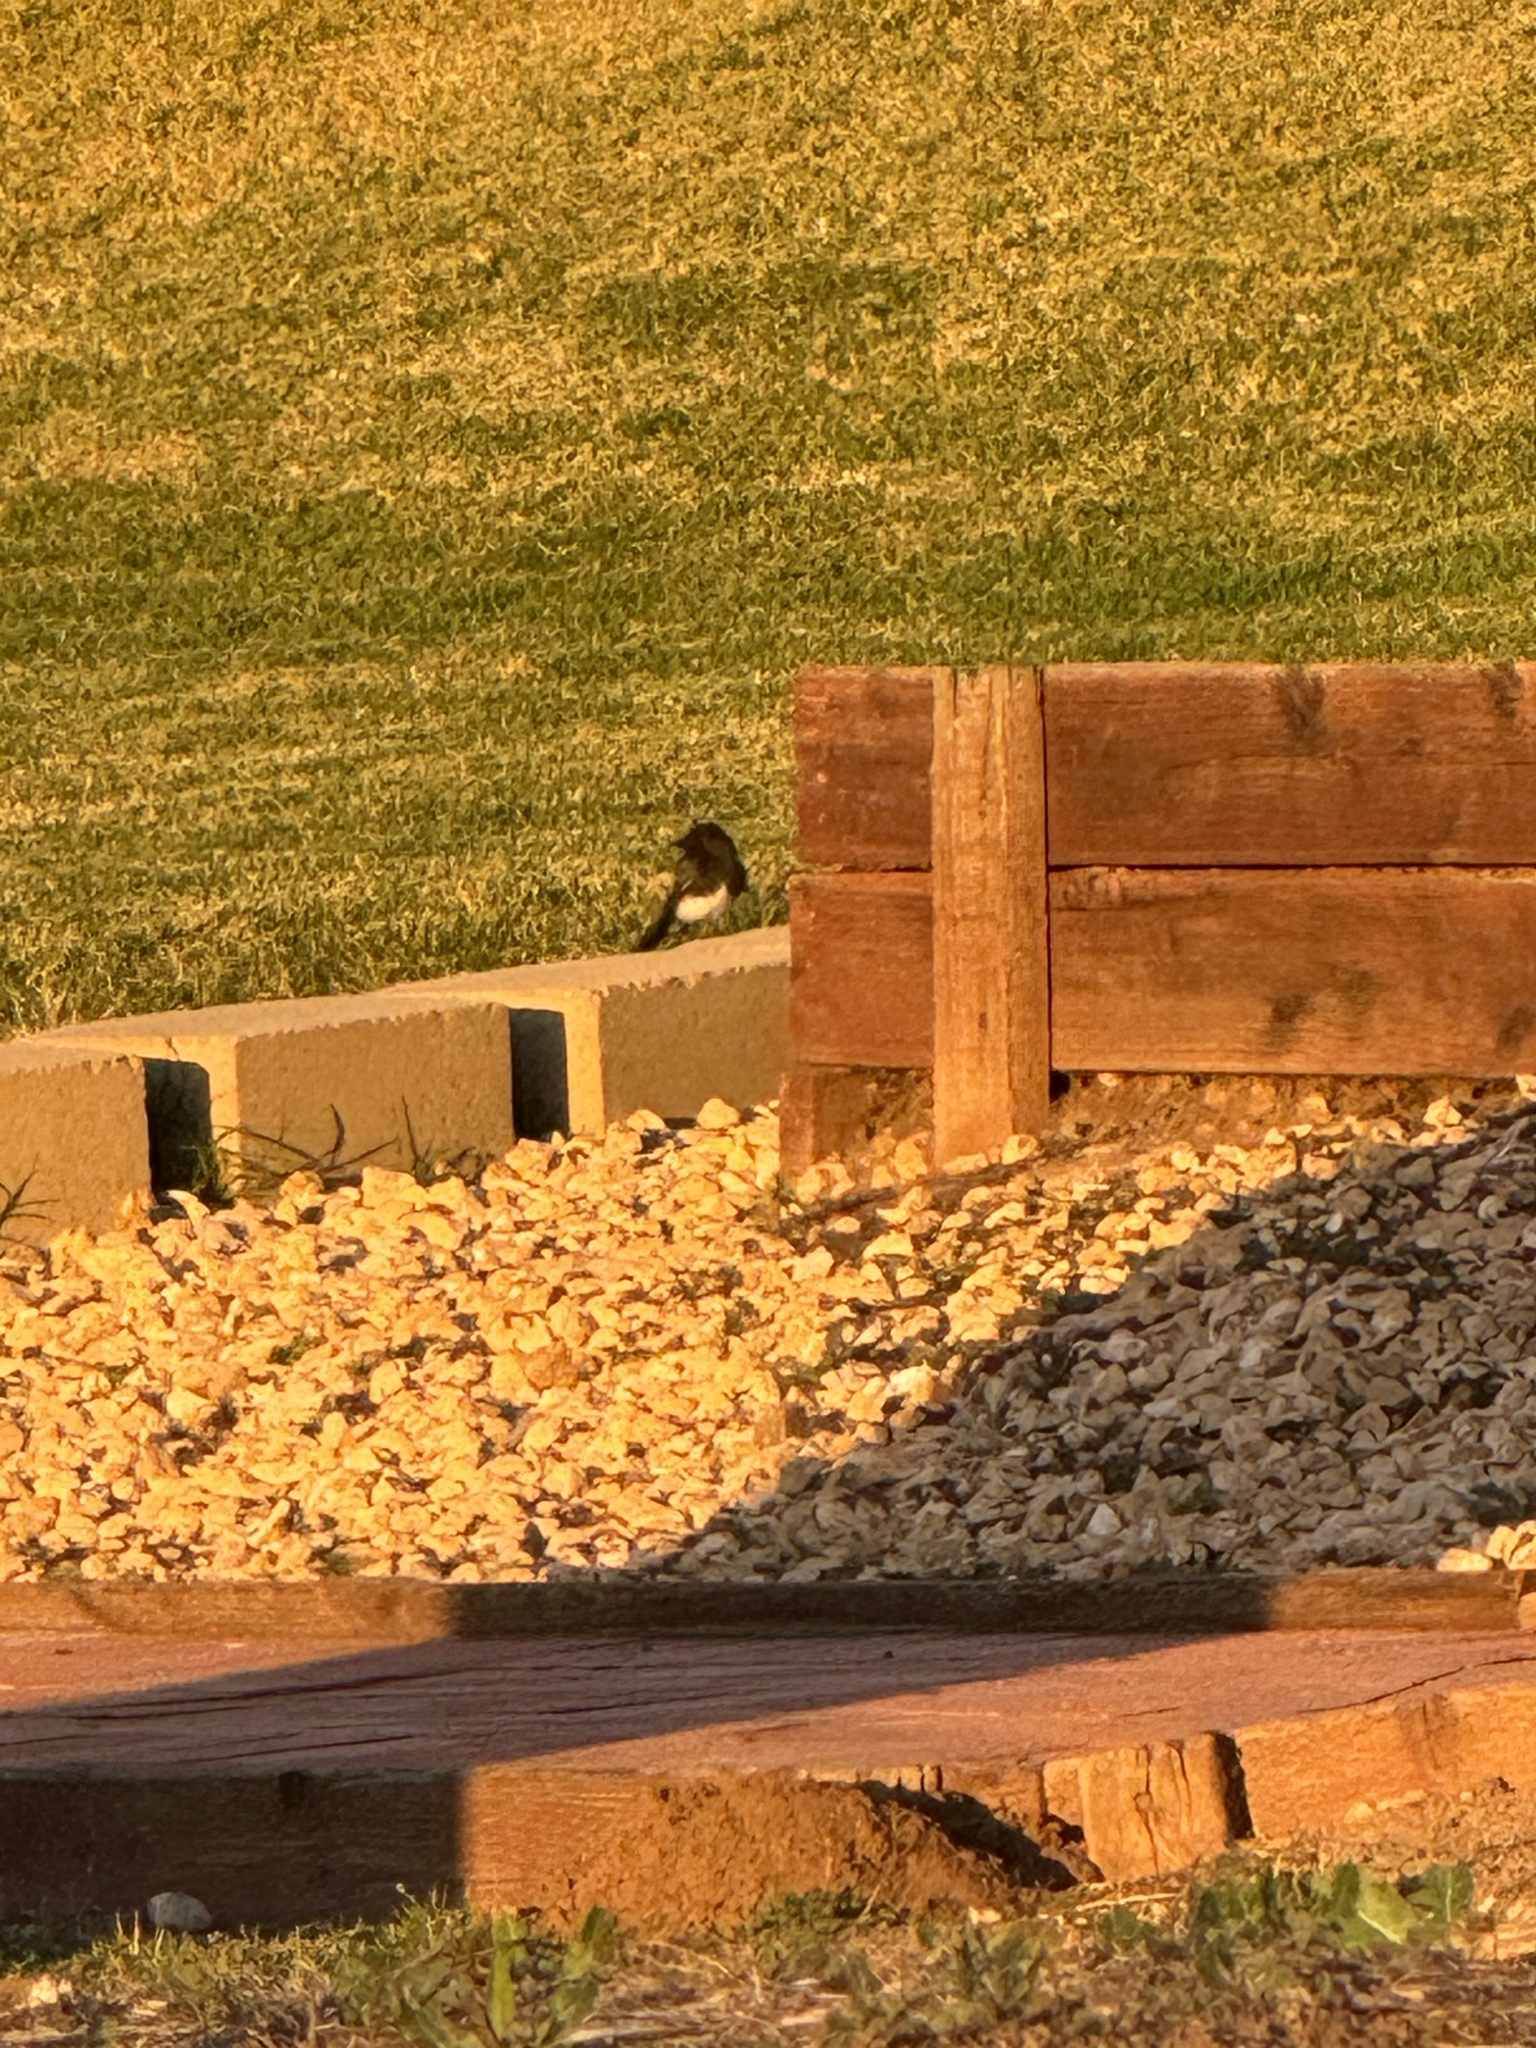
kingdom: Animalia
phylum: Chordata
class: Aves
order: Passeriformes
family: Tyrannidae
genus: Sayornis
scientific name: Sayornis nigricans
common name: Black phoebe
